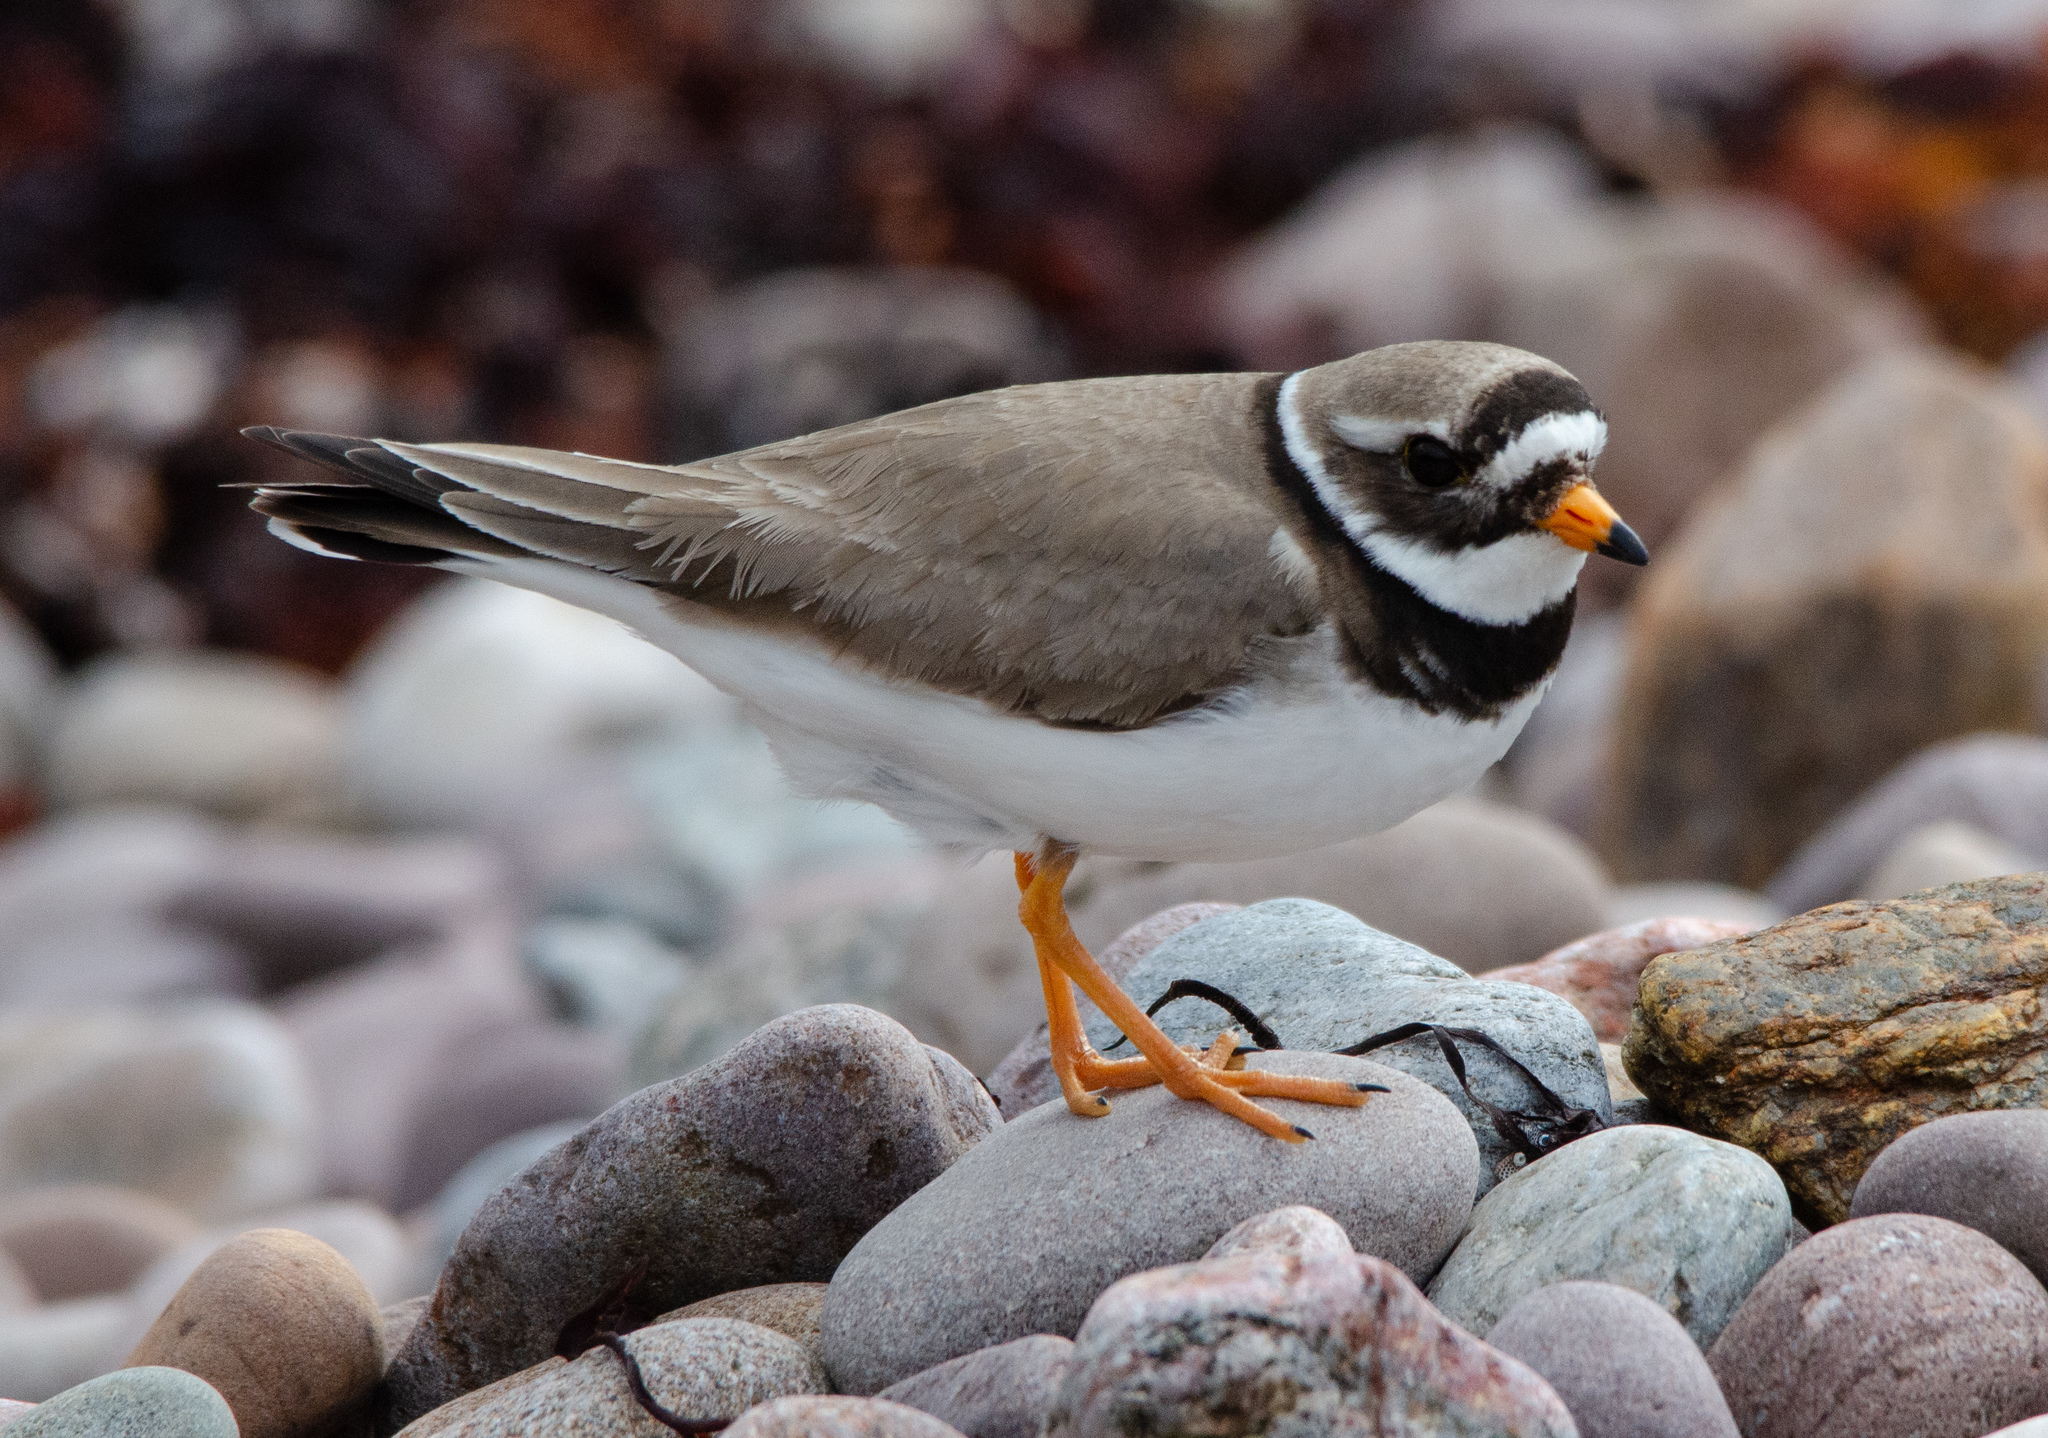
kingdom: Animalia
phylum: Chordata
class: Aves
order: Charadriiformes
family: Charadriidae
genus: Charadrius
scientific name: Charadrius hiaticula
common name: Common ringed plover
